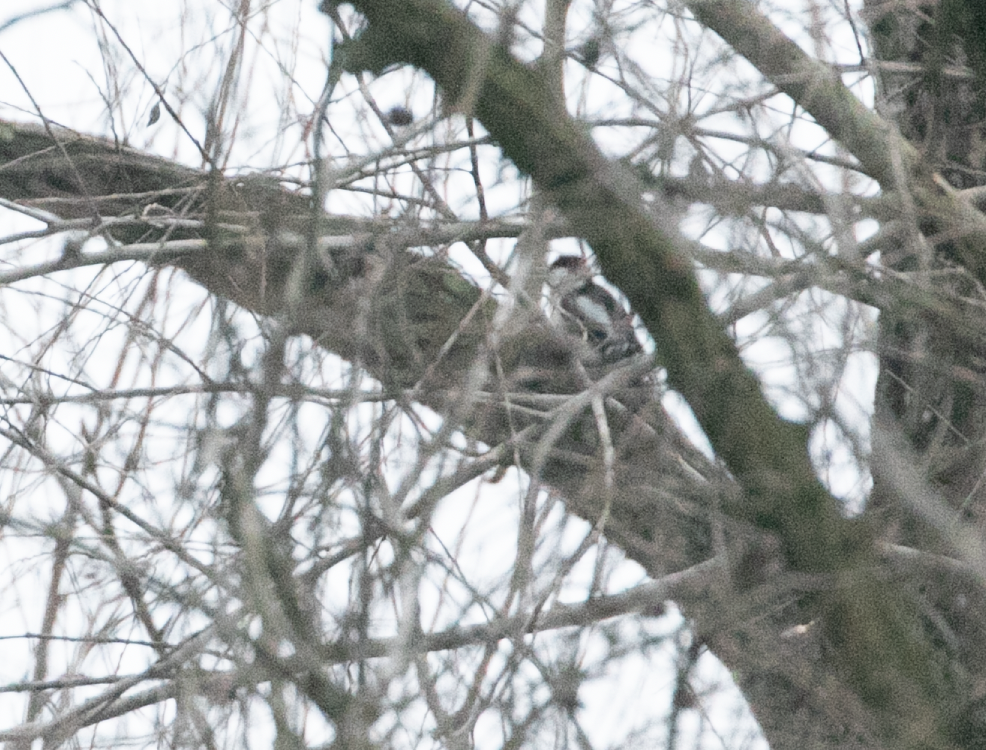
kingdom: Animalia
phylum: Chordata
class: Aves
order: Piciformes
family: Picidae
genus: Dendrocopos
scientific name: Dendrocopos major
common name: Great spotted woodpecker
